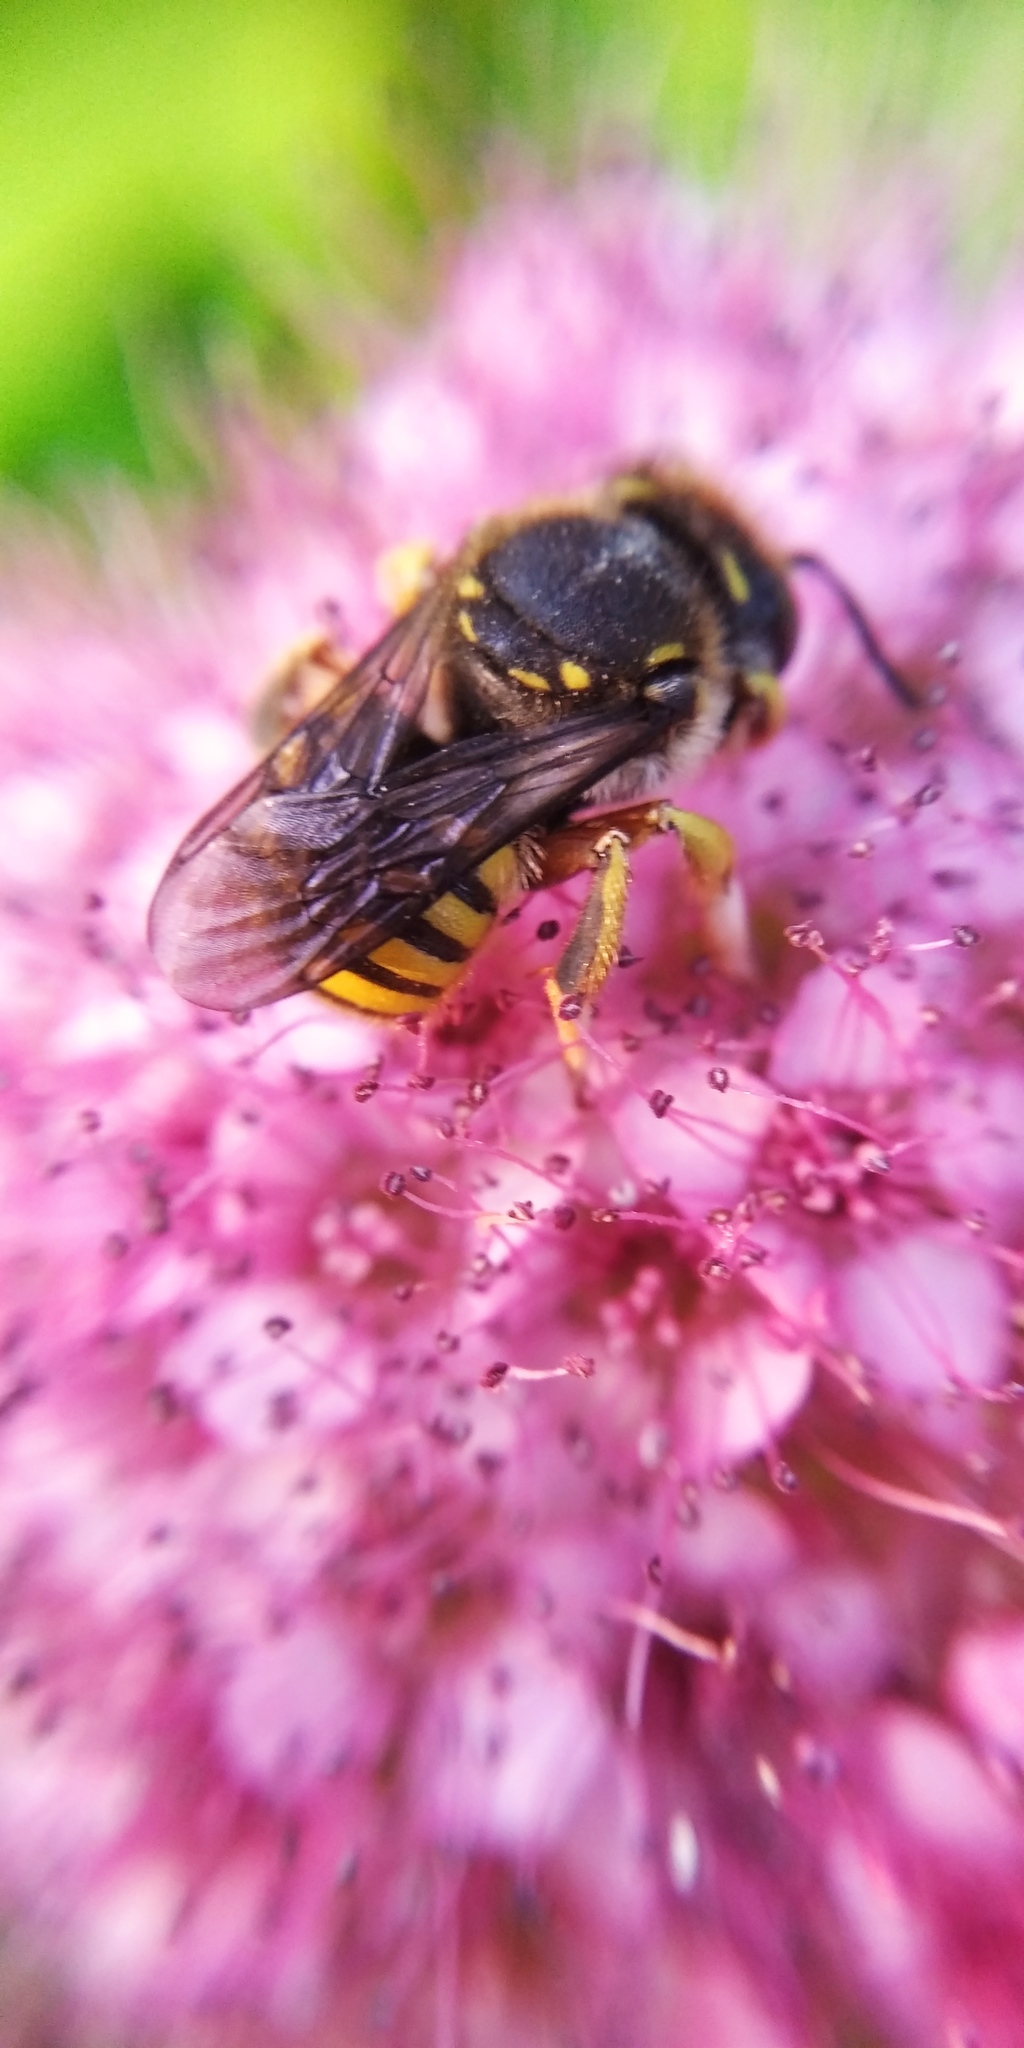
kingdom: Animalia
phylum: Arthropoda
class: Insecta
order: Hymenoptera
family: Megachilidae
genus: Anthidium
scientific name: Anthidium manicatum
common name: Wool carder bee
